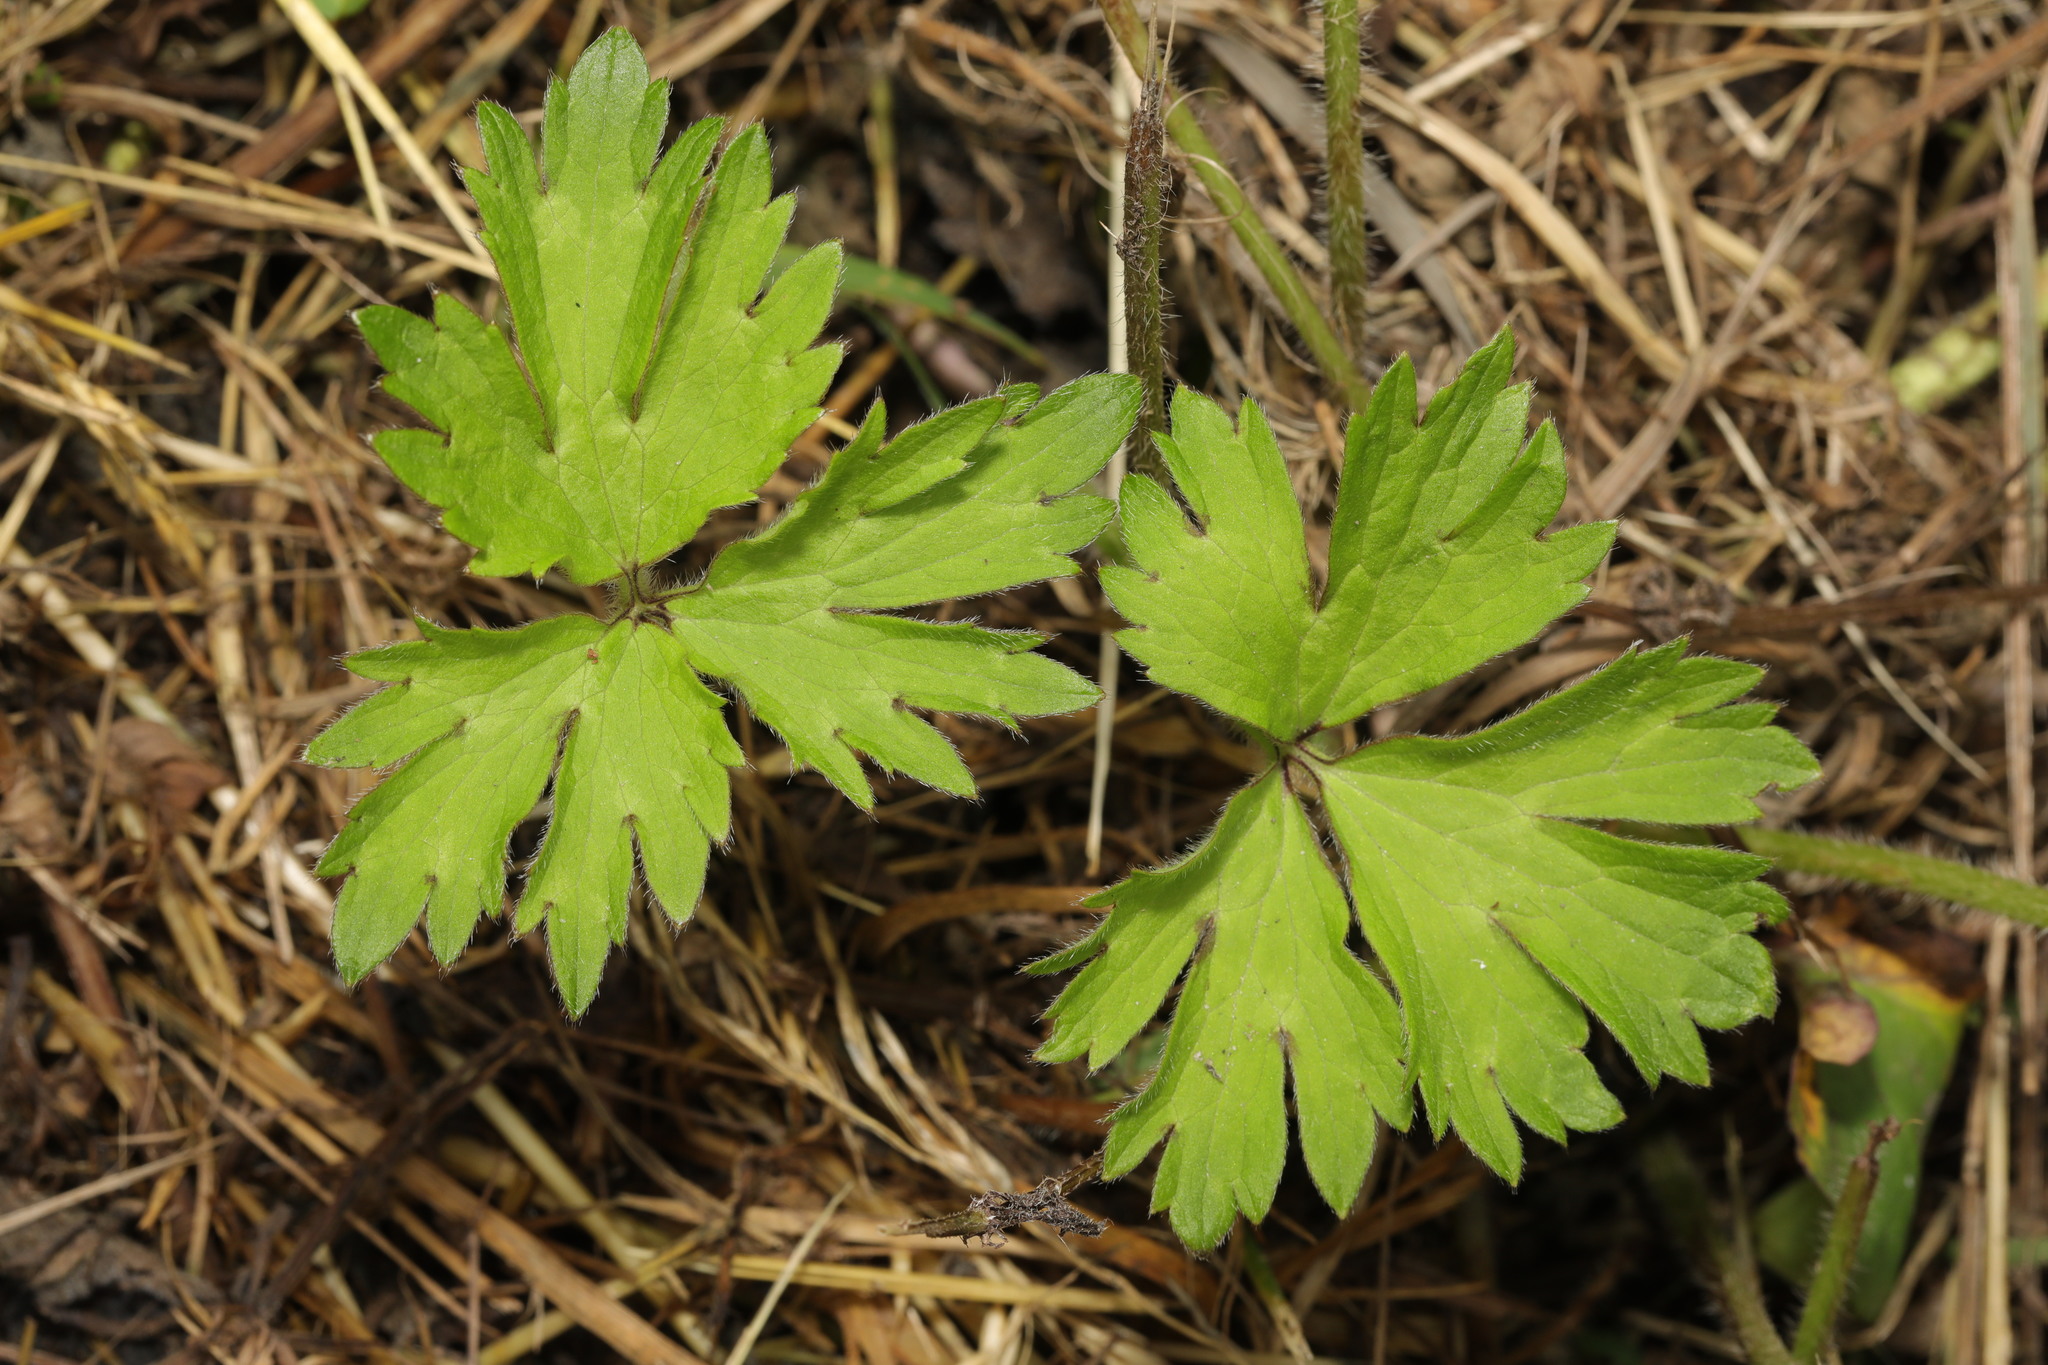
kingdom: Plantae
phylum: Tracheophyta
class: Magnoliopsida
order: Ranunculales
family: Ranunculaceae
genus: Ranunculus
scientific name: Ranunculus repens
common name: Creeping buttercup
